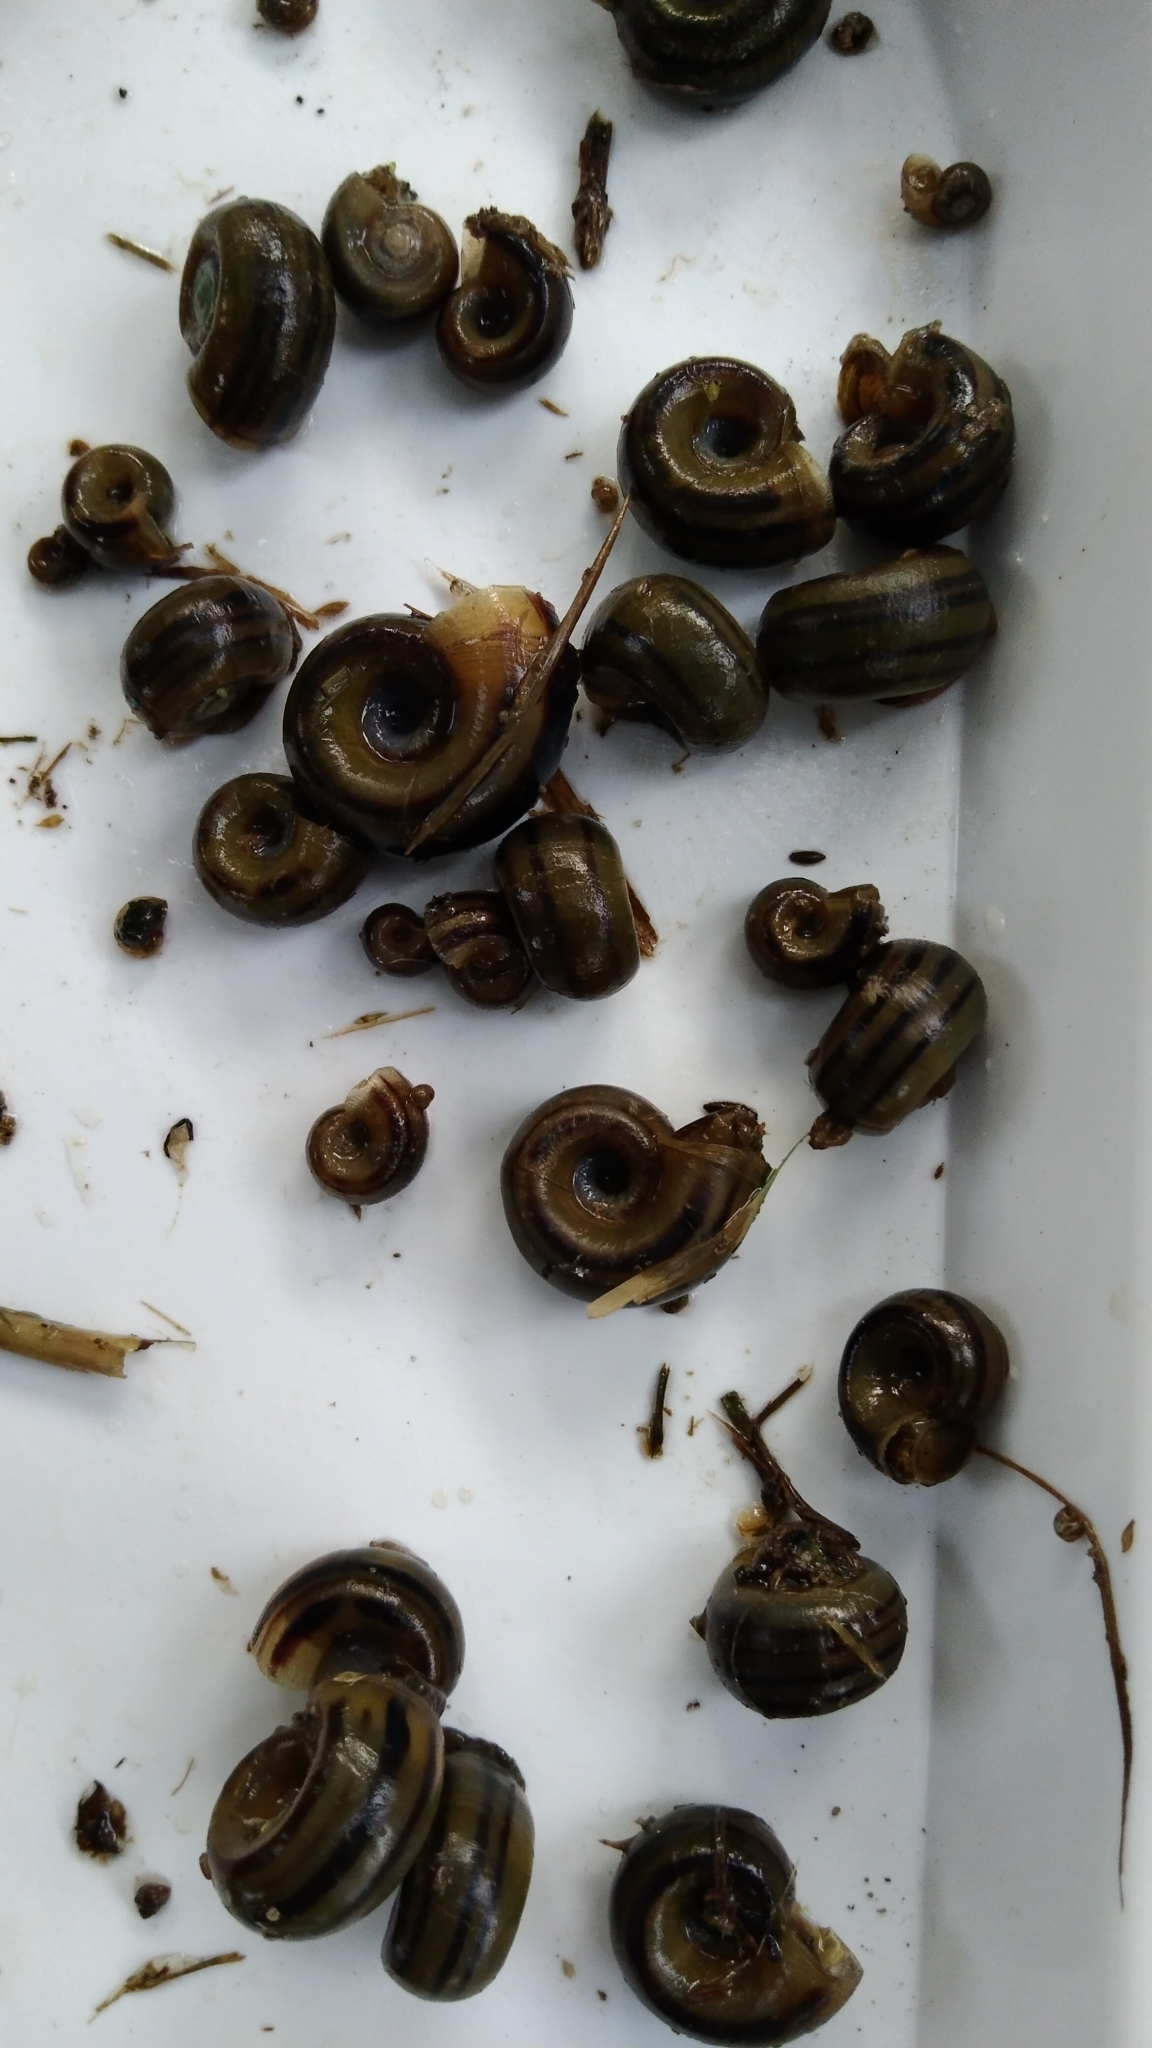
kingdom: Animalia
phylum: Mollusca
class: Gastropoda
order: Architaenioglossa
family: Ampullariidae
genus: Marisa
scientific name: Marisa cornuarietis
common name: Giant ramshorn snail
